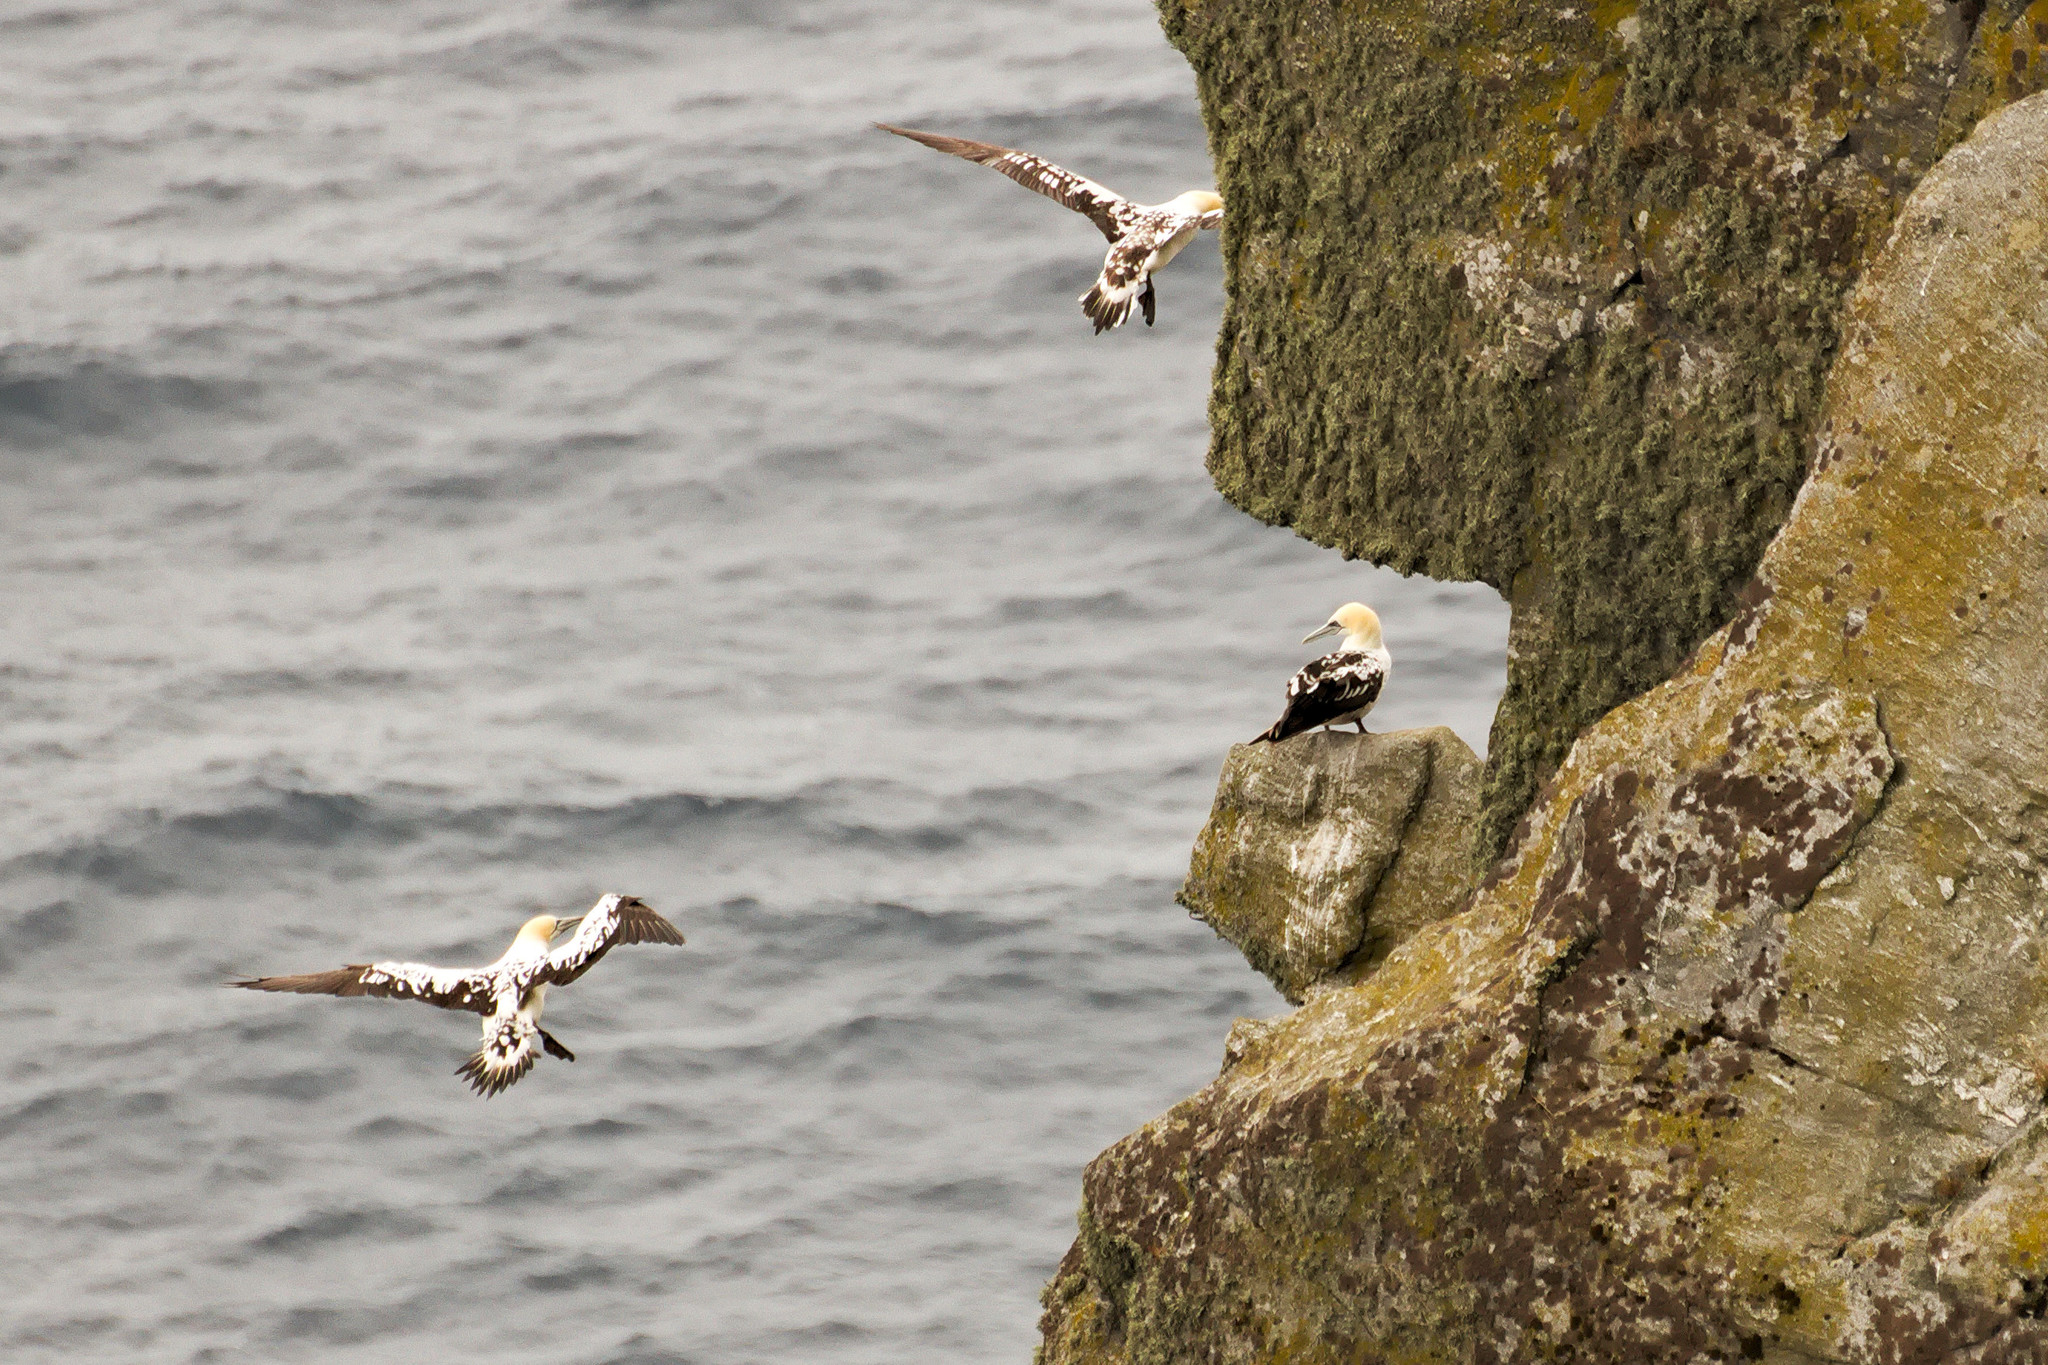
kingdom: Animalia
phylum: Chordata
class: Aves
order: Suliformes
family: Sulidae
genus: Morus
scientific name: Morus bassanus
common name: Northern gannet
